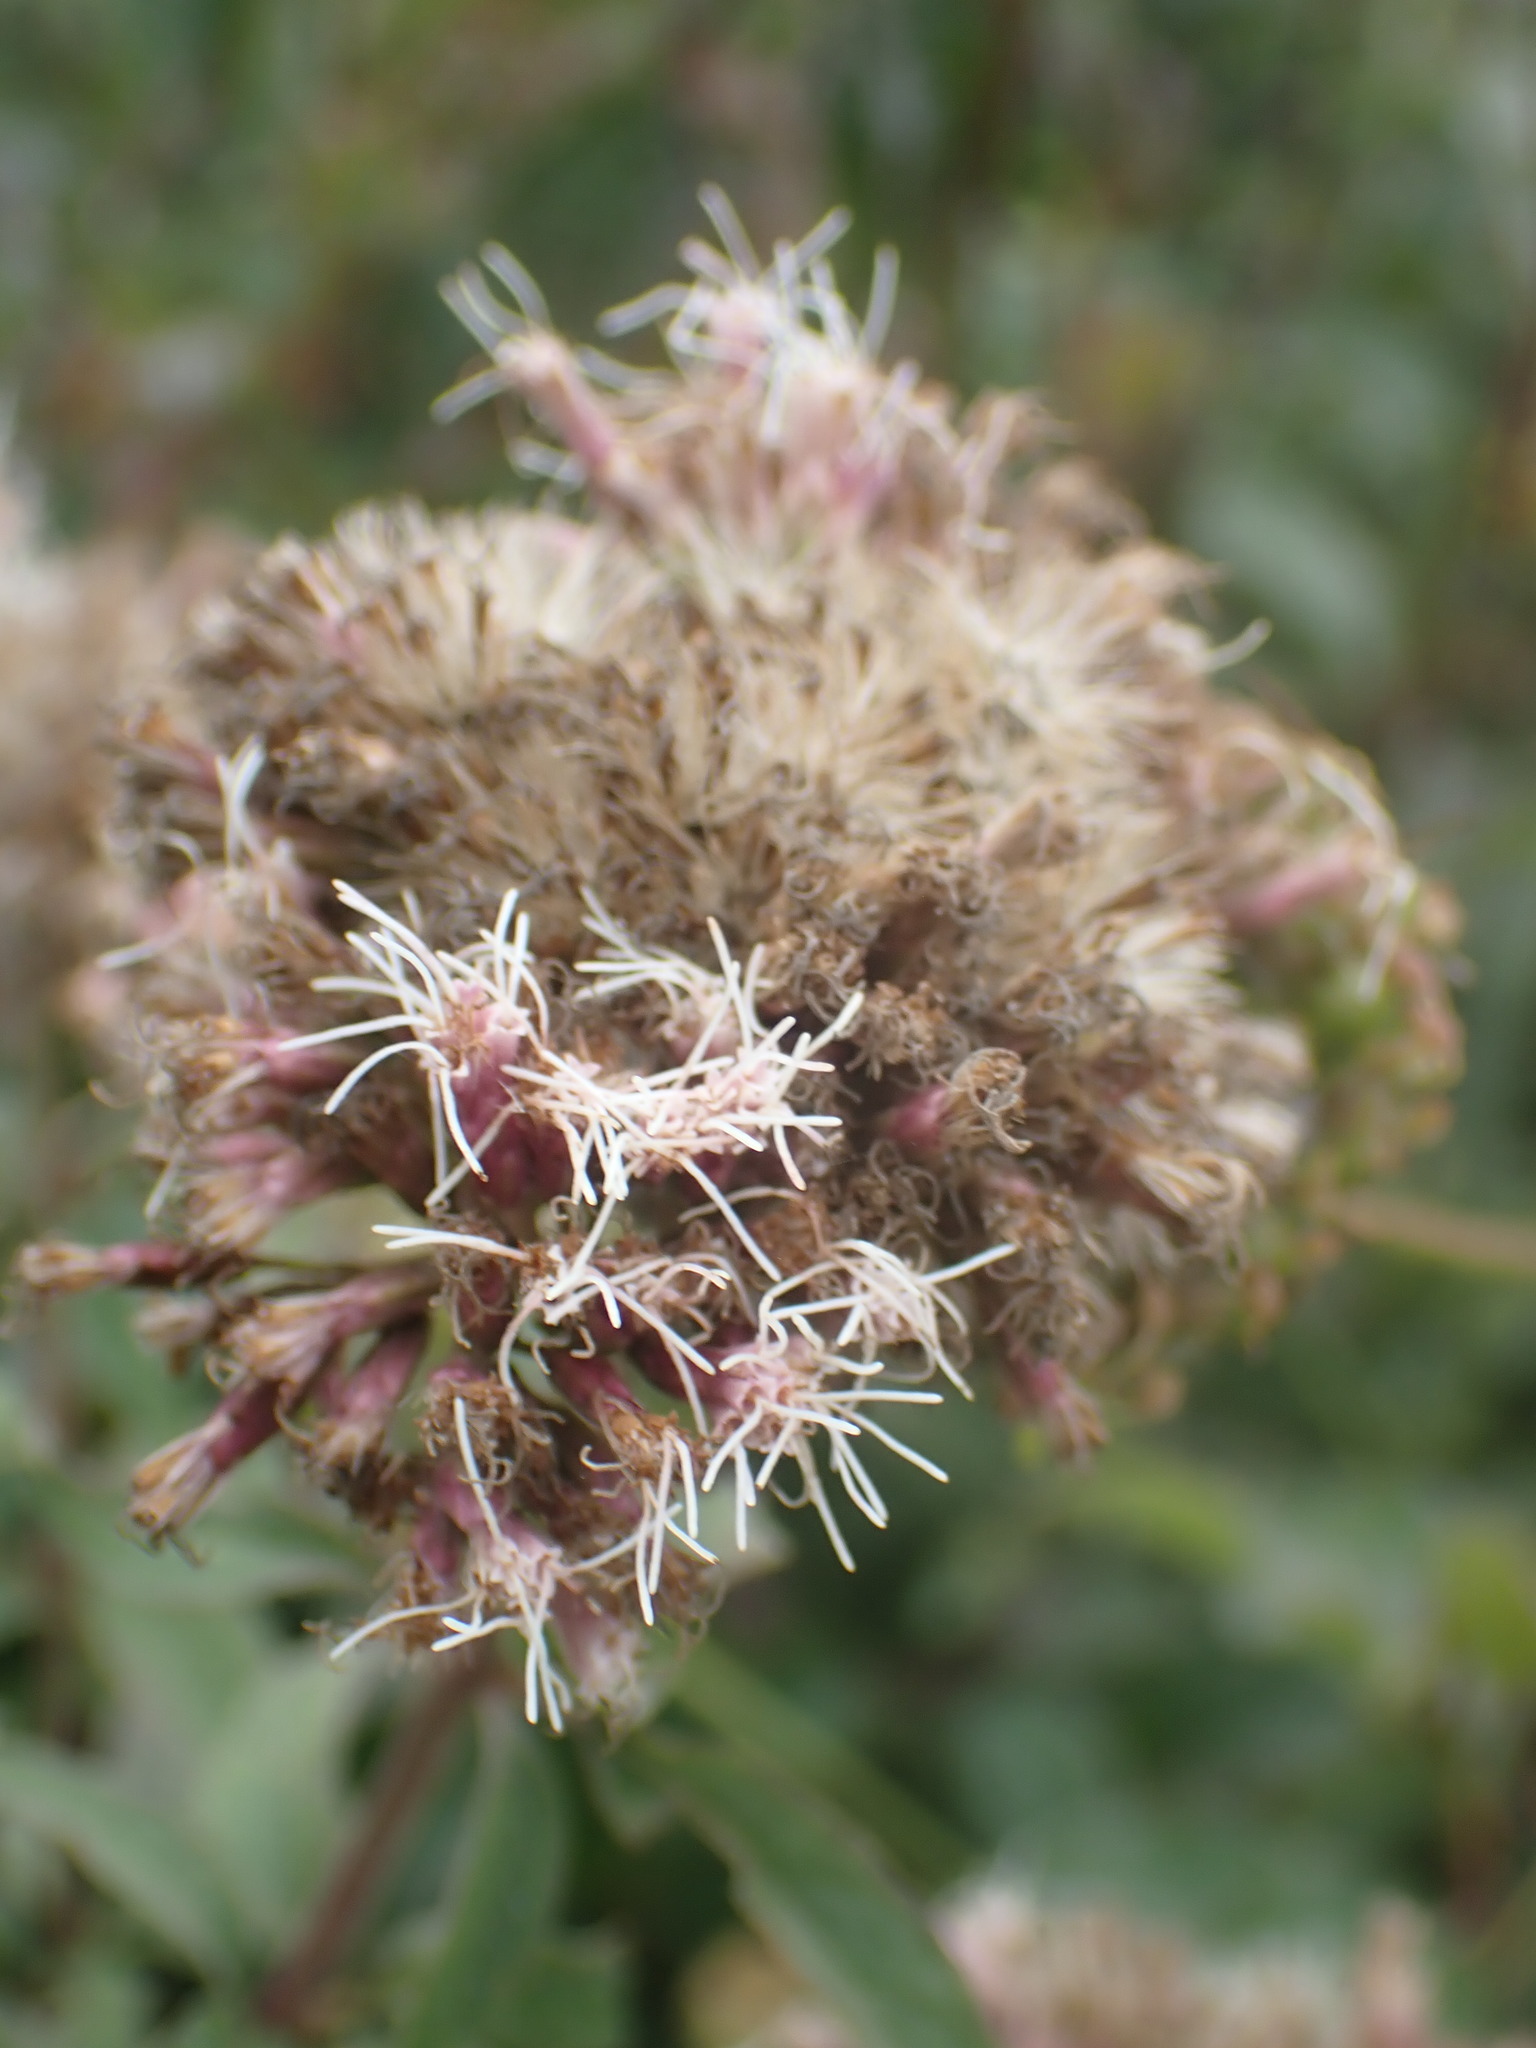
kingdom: Plantae
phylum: Tracheophyta
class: Magnoliopsida
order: Asterales
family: Asteraceae
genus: Eupatorium
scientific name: Eupatorium cannabinum
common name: Hemp-agrimony
